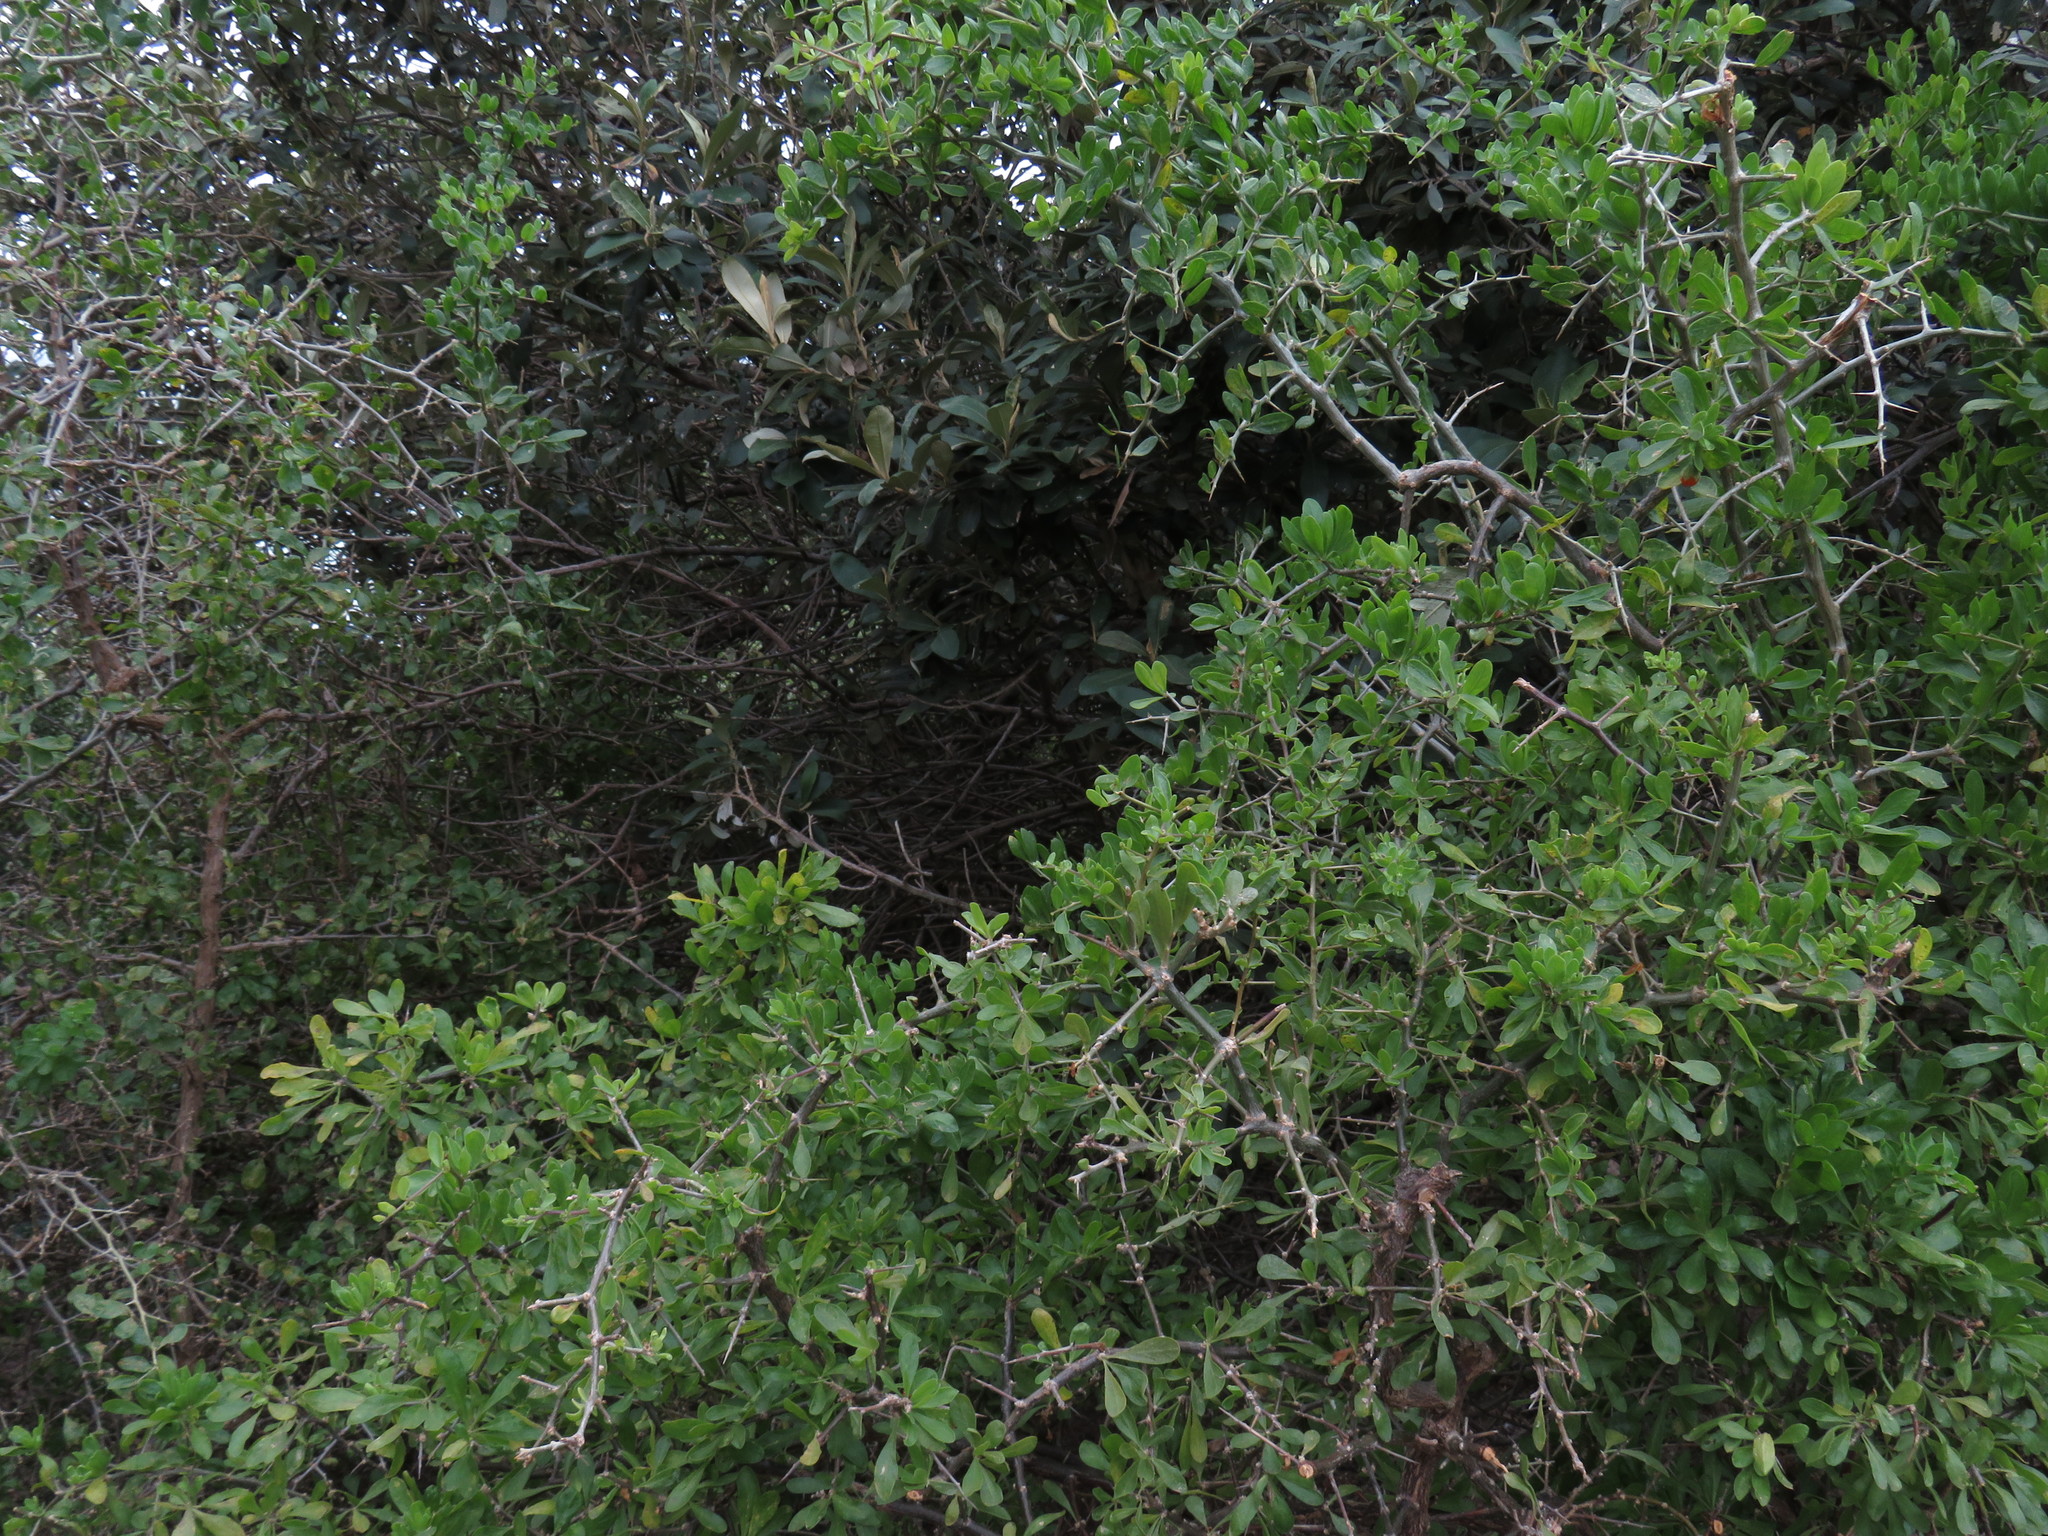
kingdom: Plantae
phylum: Tracheophyta
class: Magnoliopsida
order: Solanales
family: Solanaceae
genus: Lycium
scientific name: Lycium ferocissimum
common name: African boxthorn
